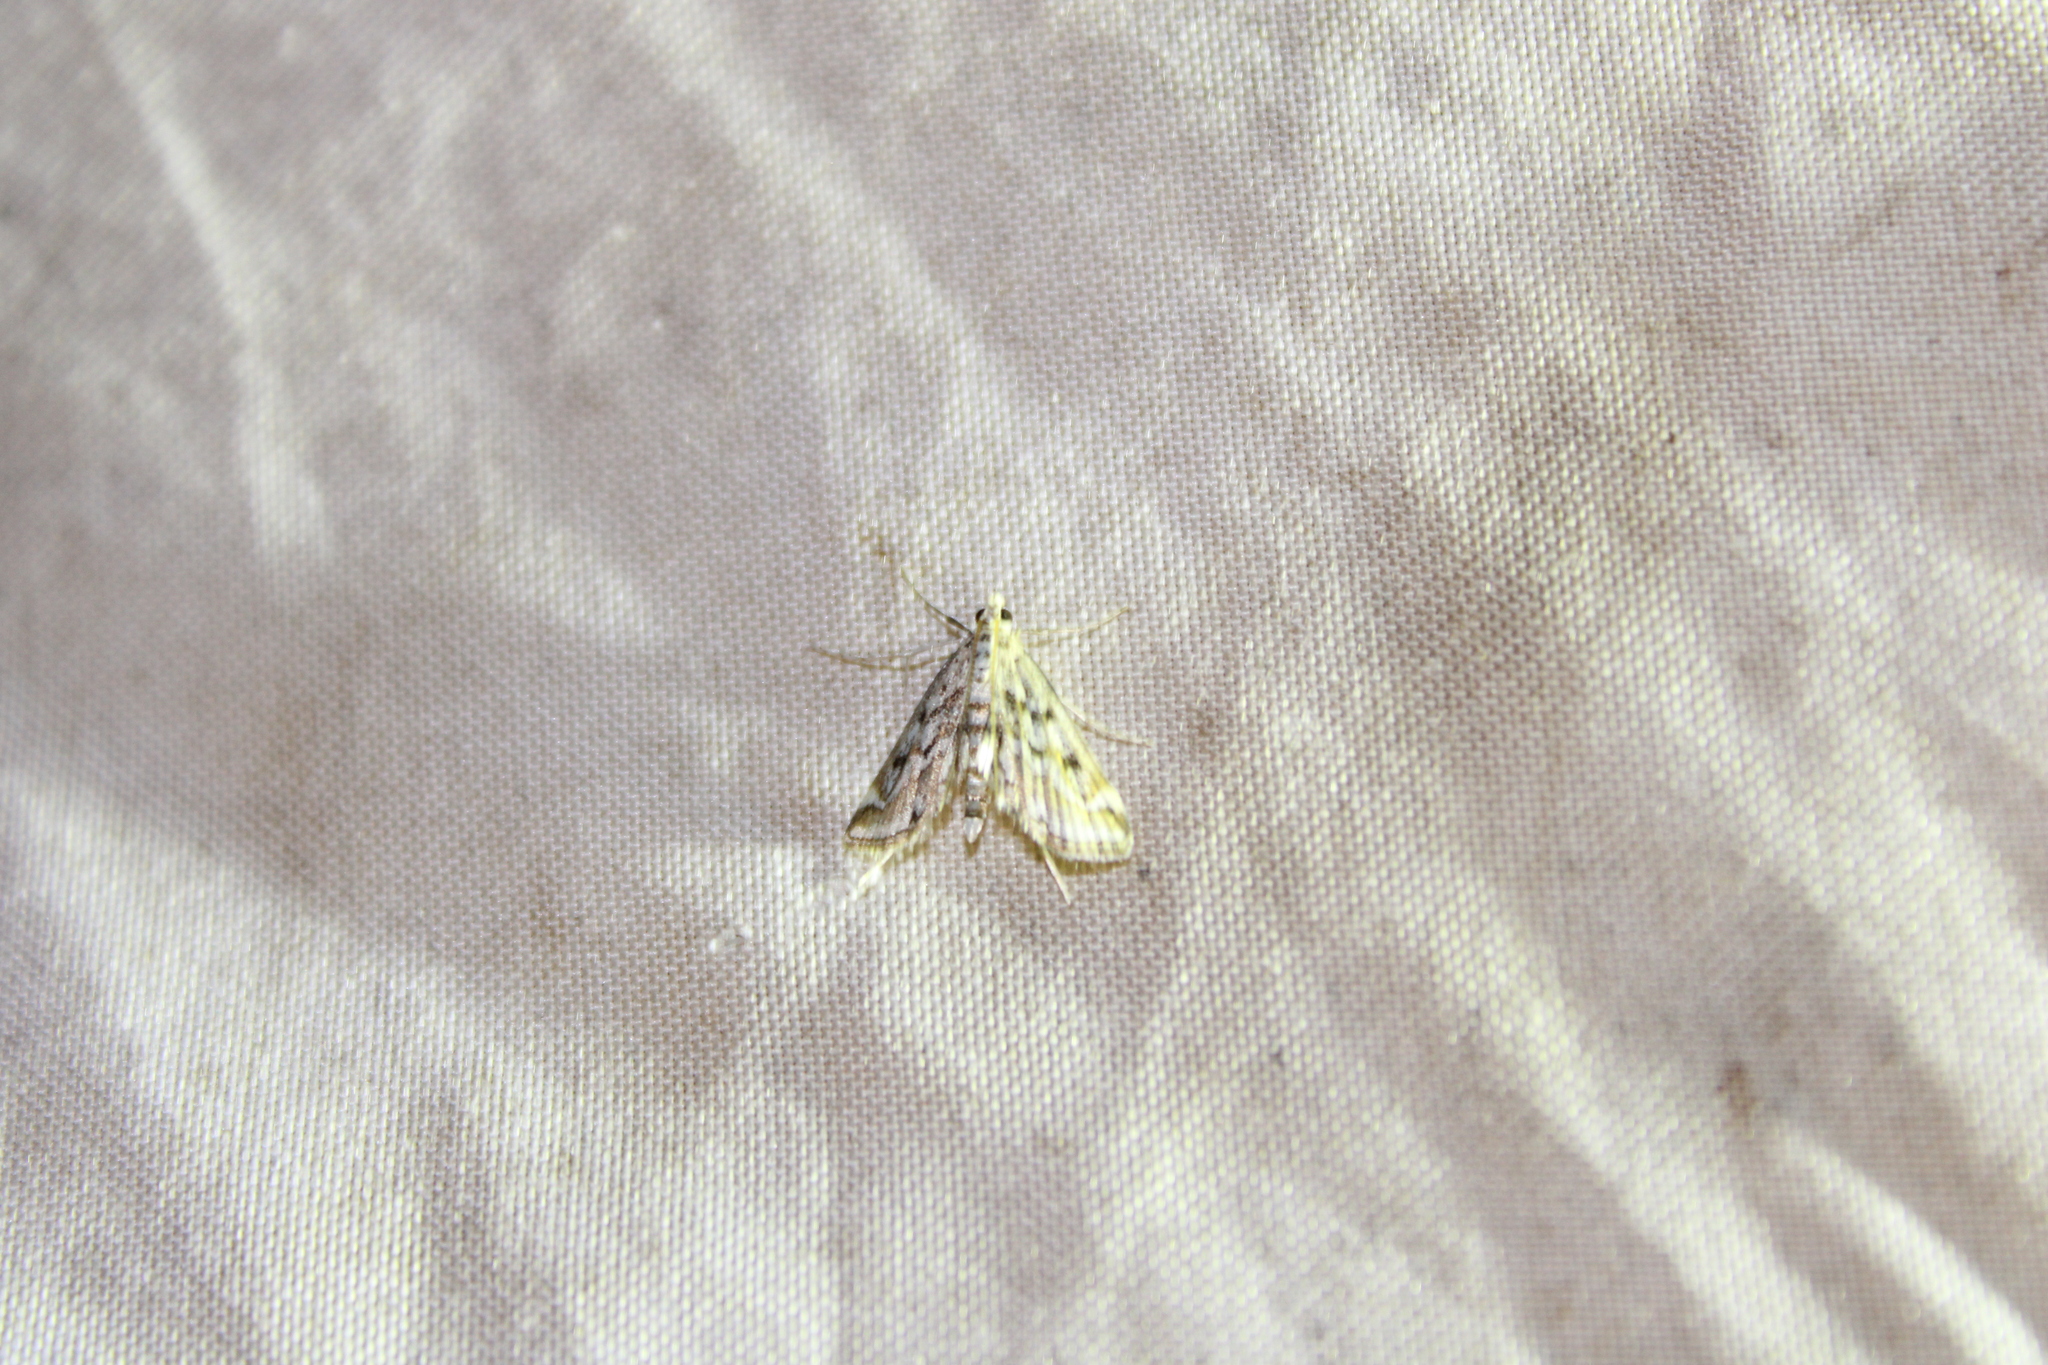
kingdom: Animalia
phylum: Arthropoda
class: Insecta
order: Lepidoptera
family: Crambidae
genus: Parapoynx
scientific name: Parapoynx allionealis
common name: Bladderwort casemaker
